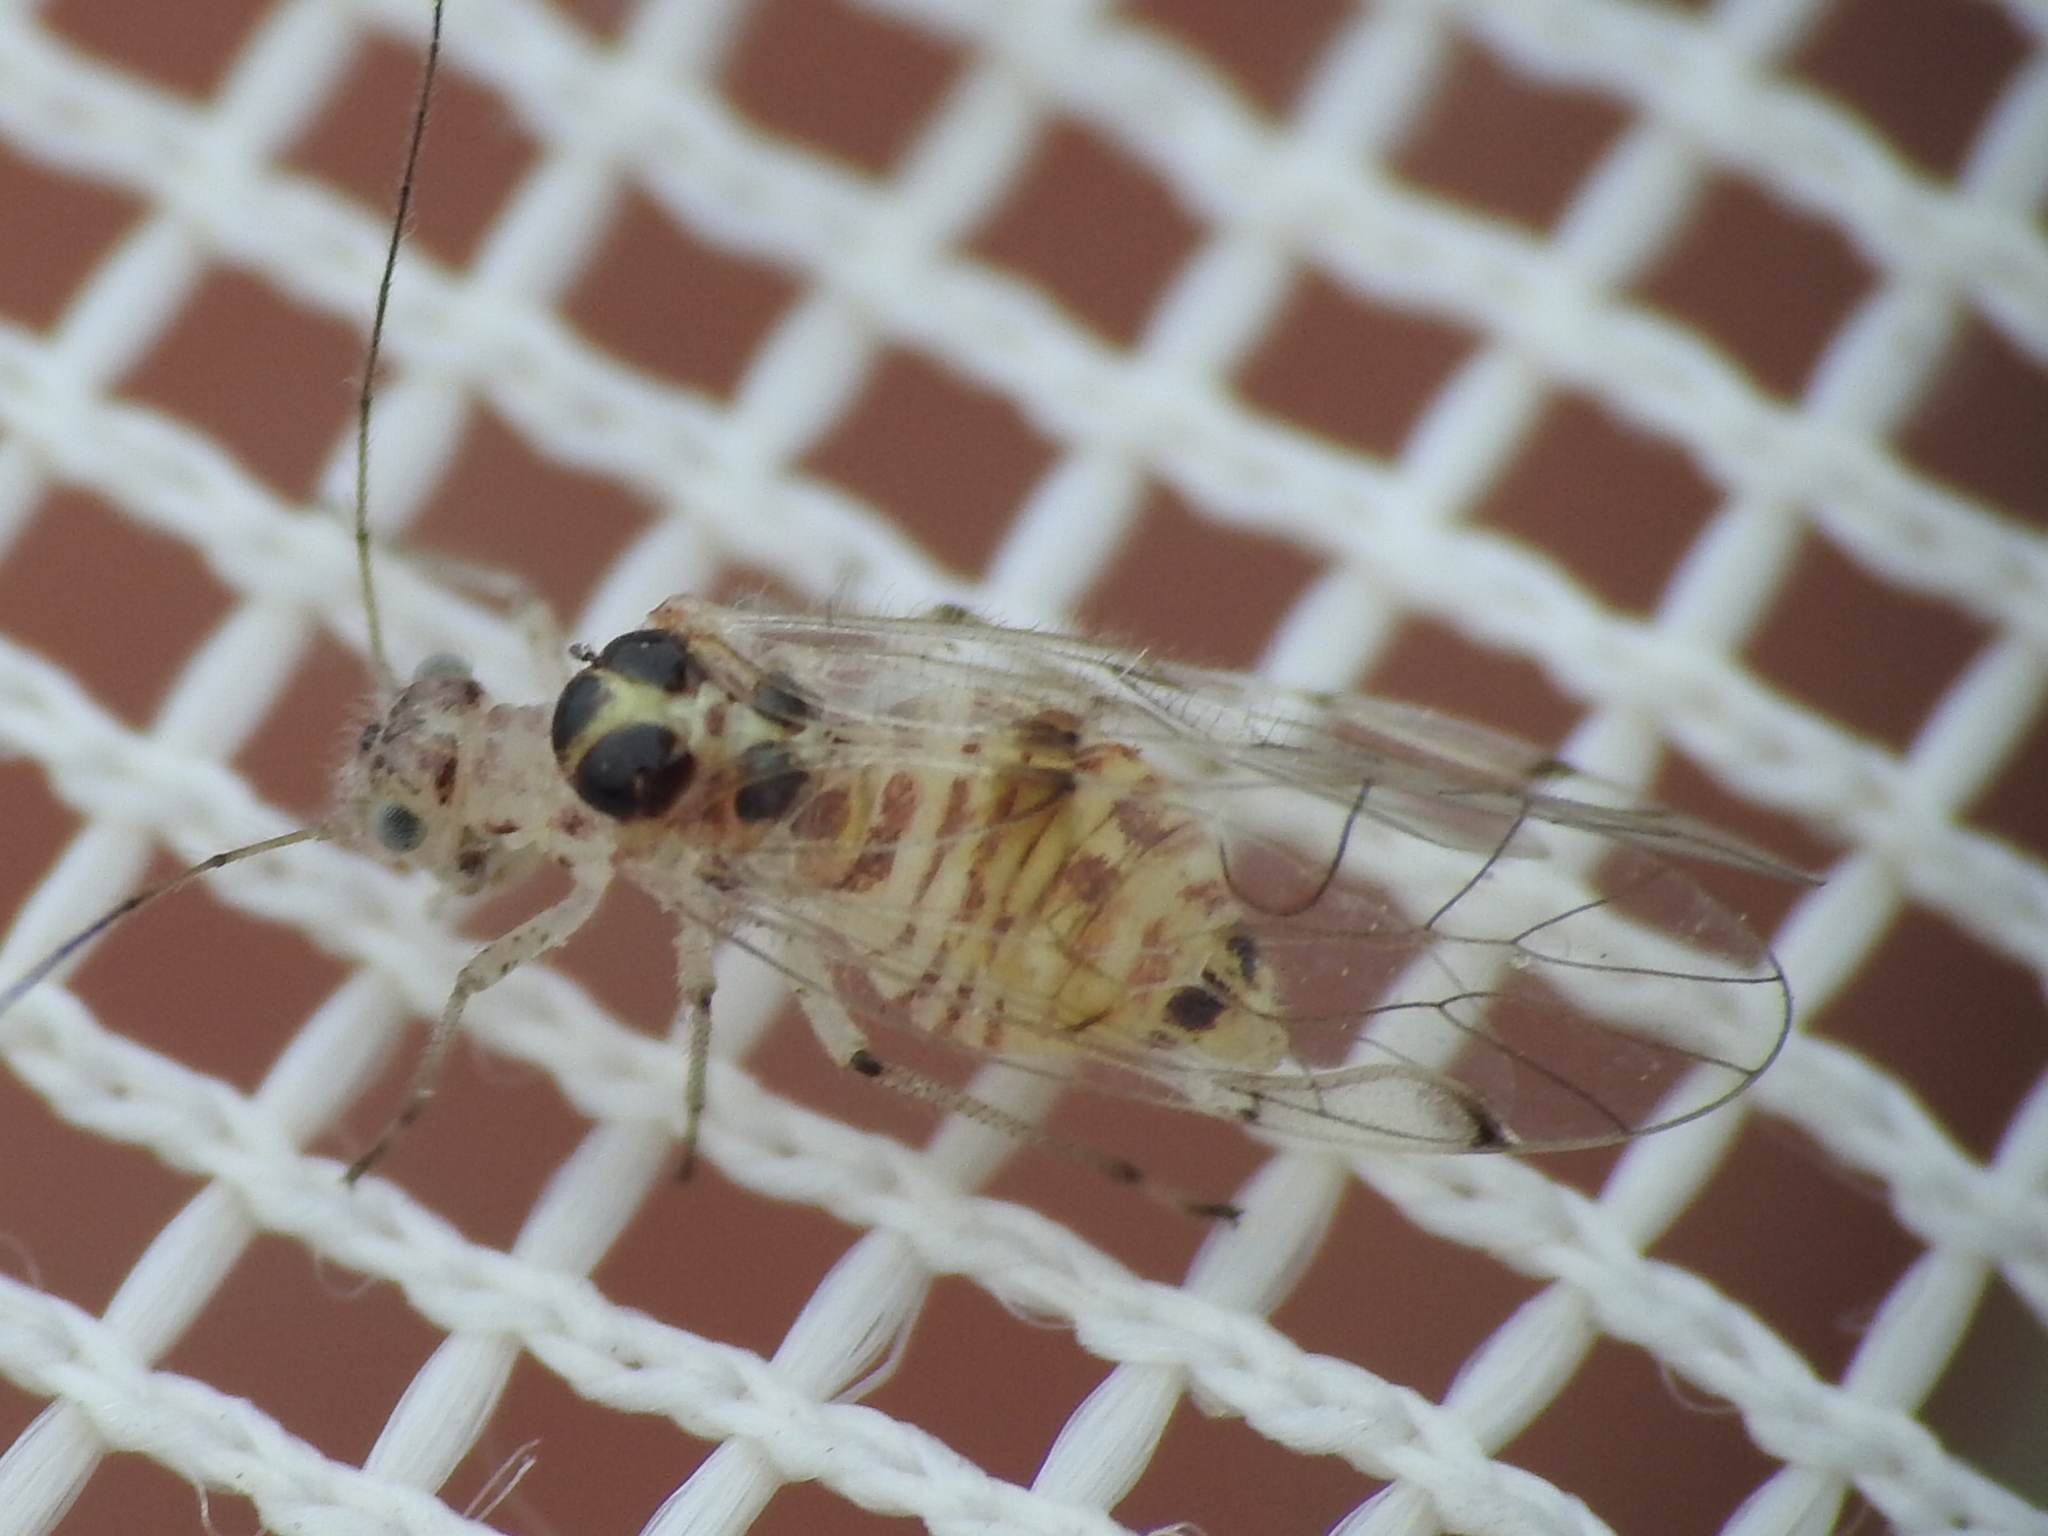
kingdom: Animalia
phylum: Arthropoda
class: Insecta
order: Psocodea
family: Dasydemellidae
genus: Teliapsocus
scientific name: Teliapsocus conterminus
